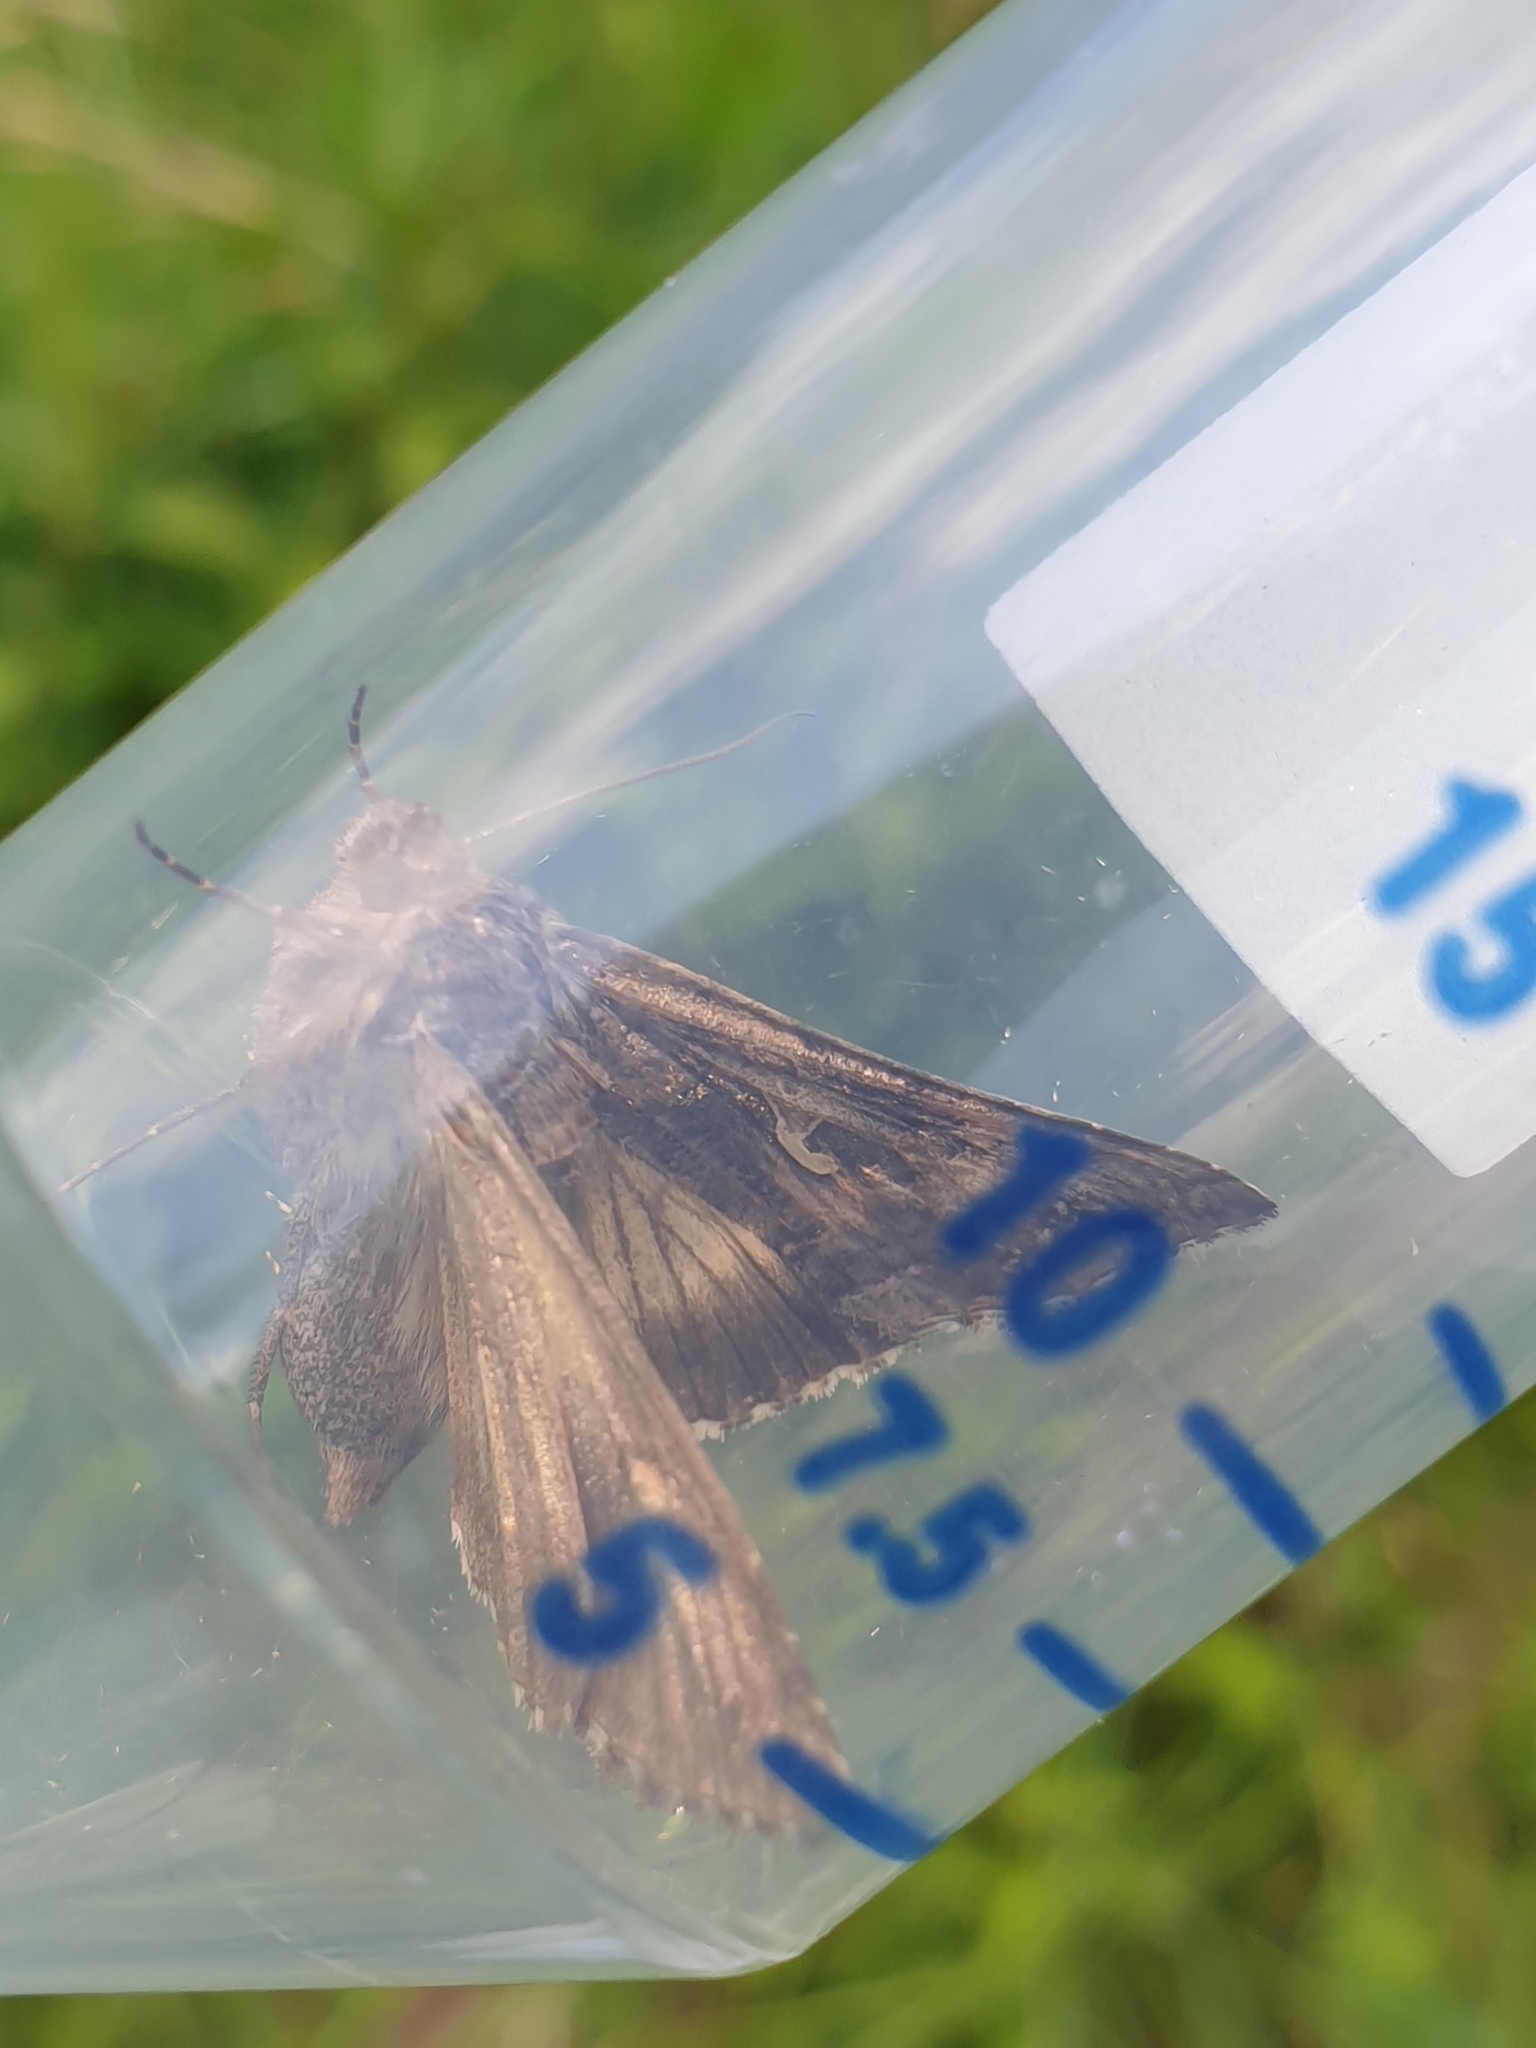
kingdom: Animalia
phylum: Arthropoda
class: Insecta
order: Lepidoptera
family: Noctuidae
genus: Autographa
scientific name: Autographa gamma
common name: Silver y
